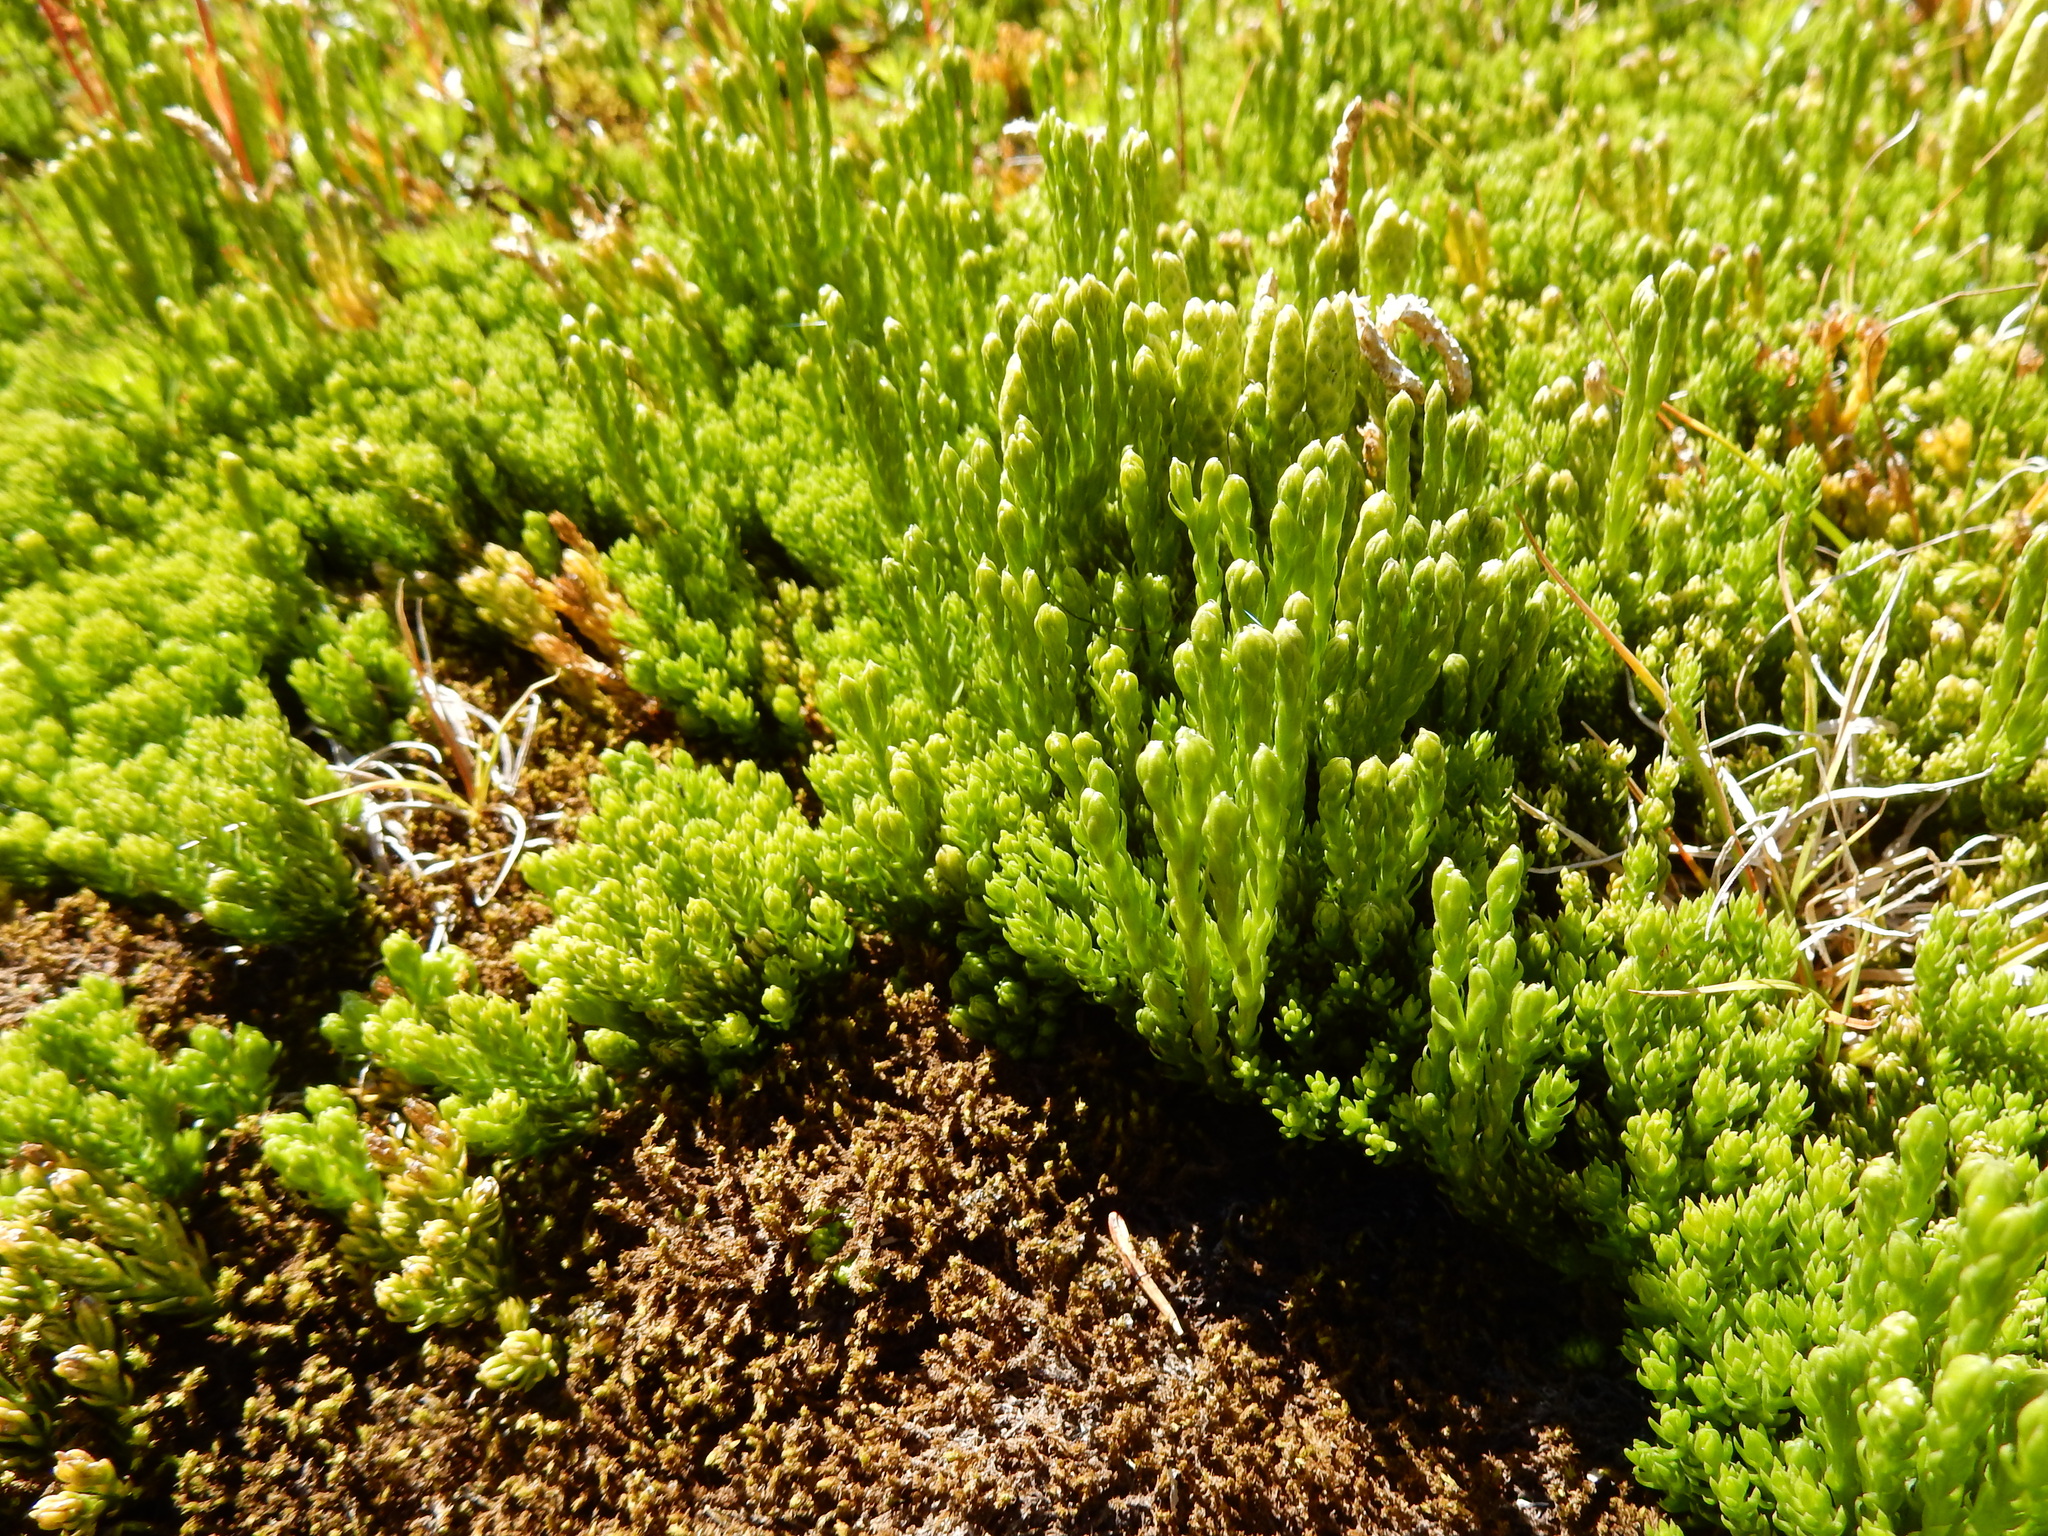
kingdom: Plantae
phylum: Tracheophyta
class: Lycopodiopsida
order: Lycopodiales
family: Lycopodiaceae
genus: Diphasiastrum
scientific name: Diphasiastrum sitchense
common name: Alaska clubmoss
